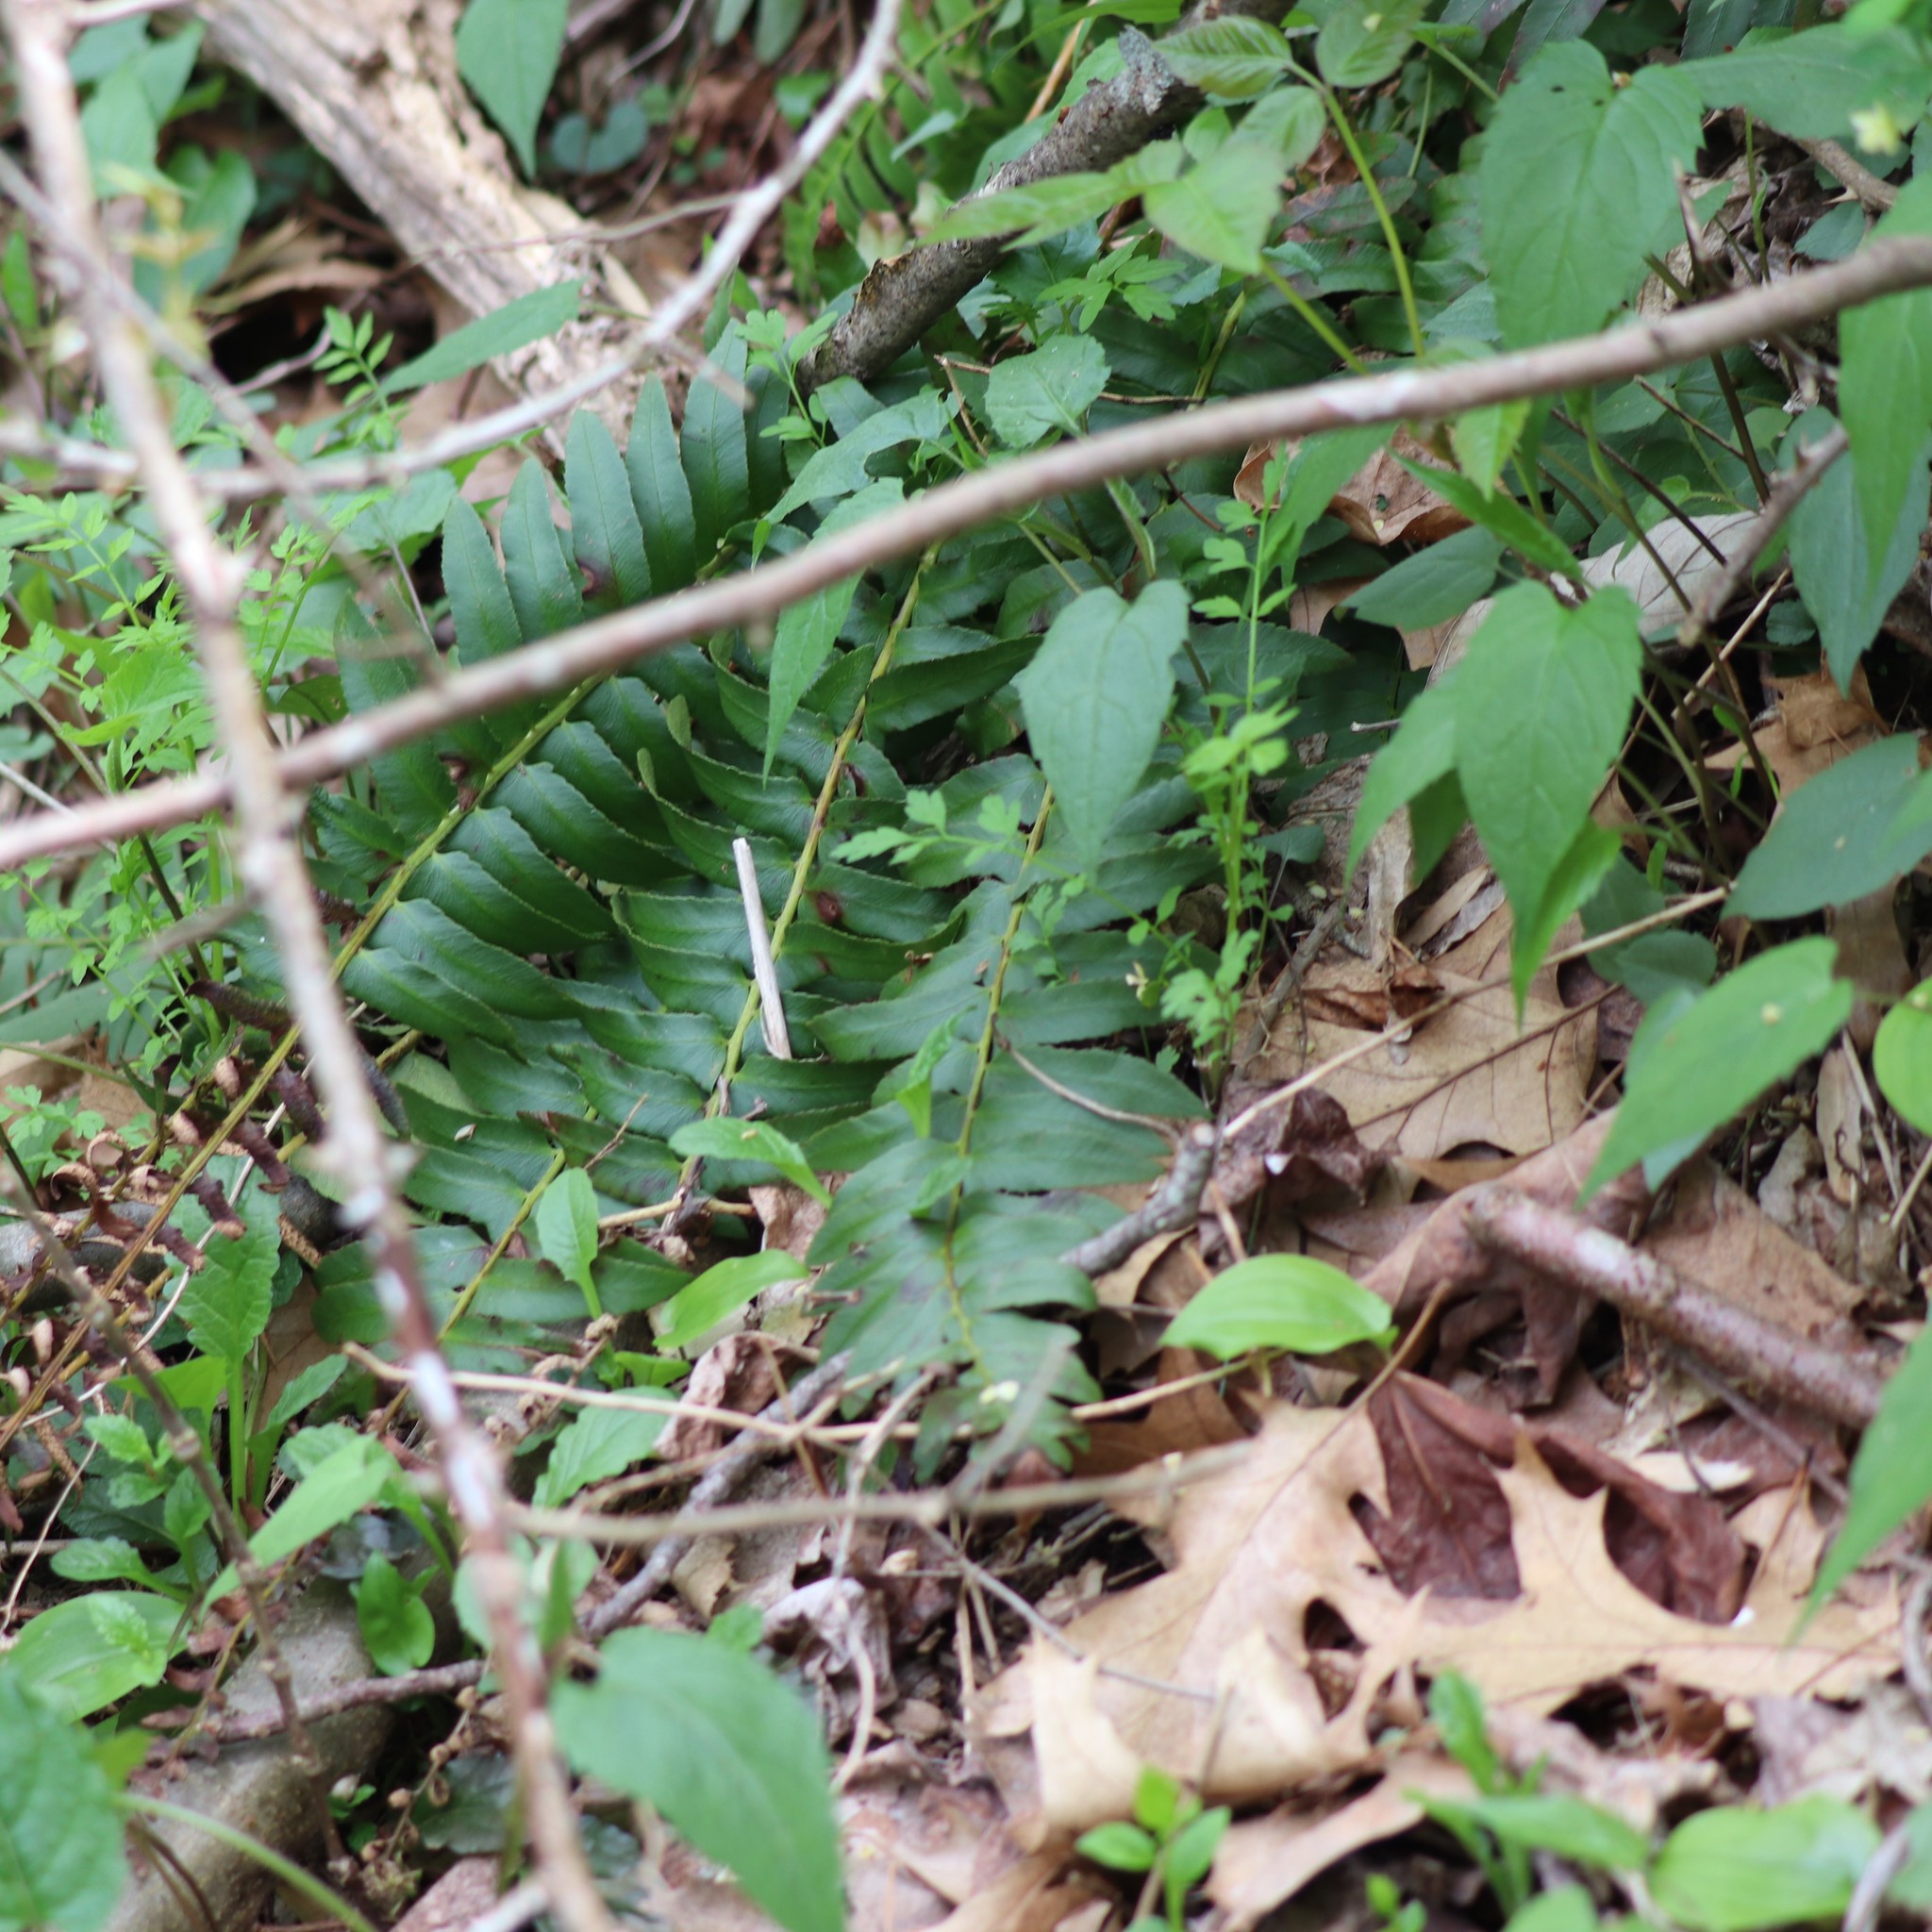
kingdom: Plantae
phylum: Tracheophyta
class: Polypodiopsida
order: Polypodiales
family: Dryopteridaceae
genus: Polystichum
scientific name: Polystichum acrostichoides
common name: Christmas fern
